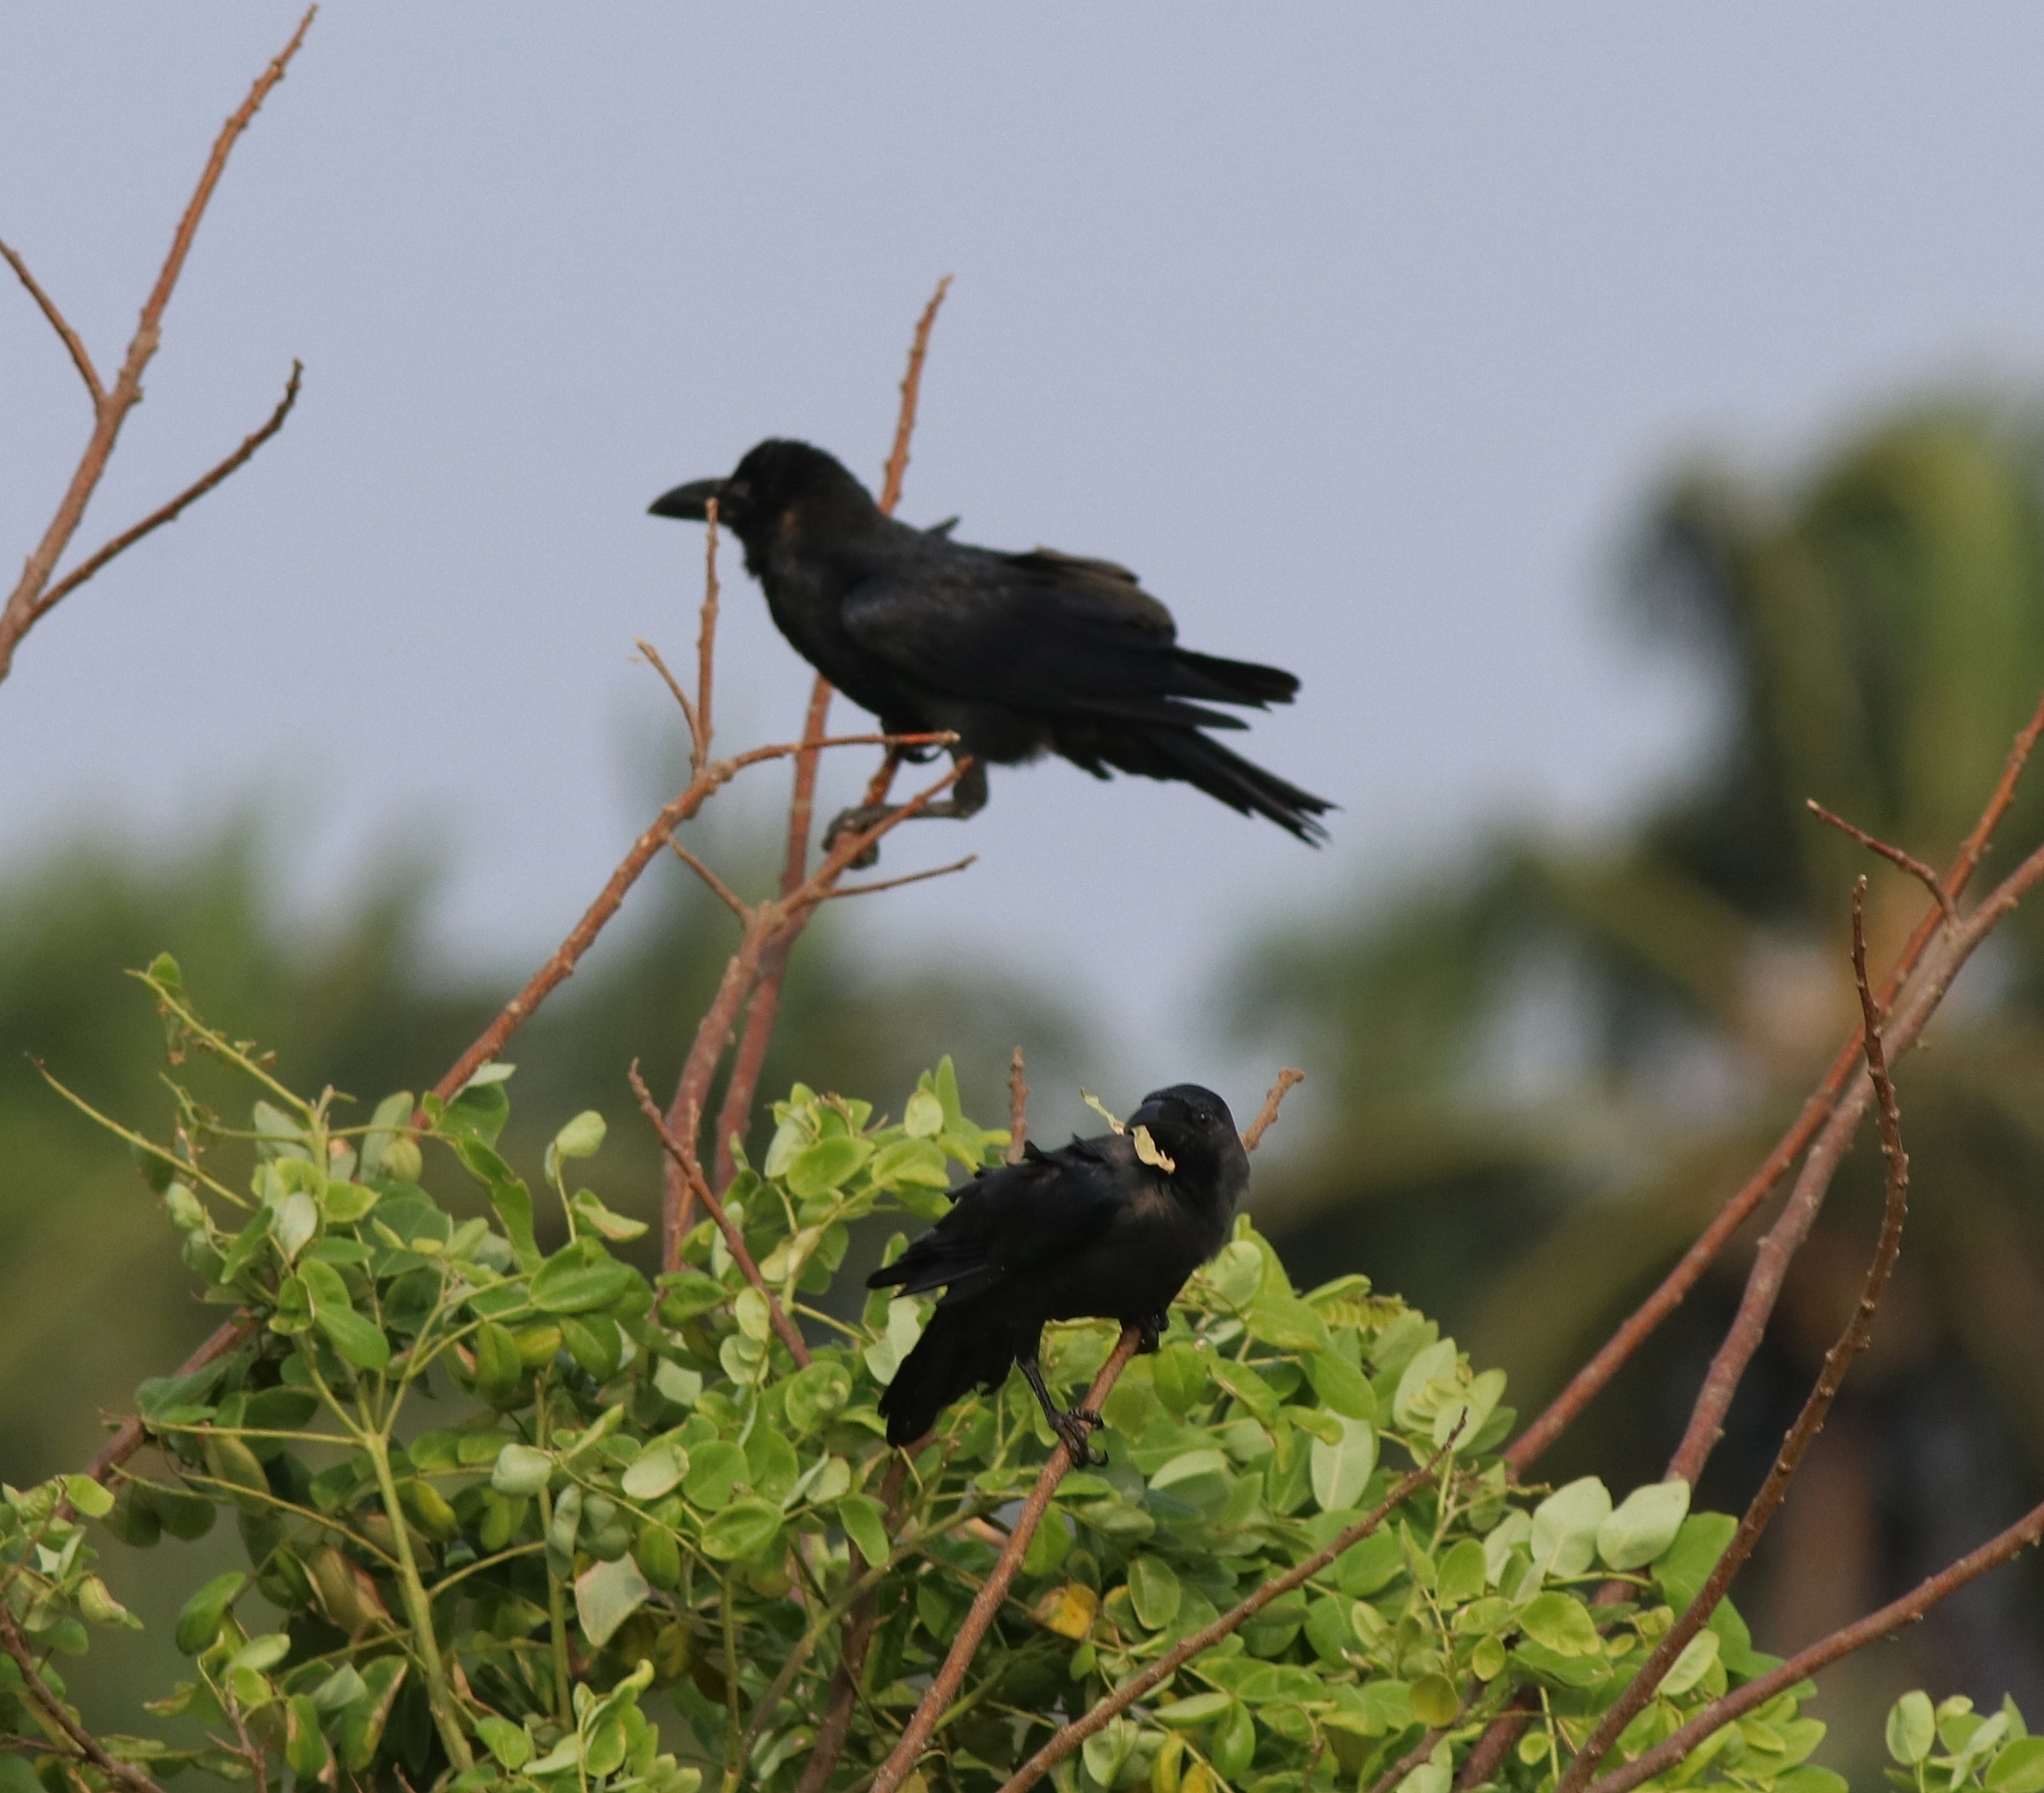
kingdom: Animalia
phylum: Chordata
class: Aves
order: Passeriformes
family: Corvidae
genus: Corvus
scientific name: Corvus macrorhynchos
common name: Large-billed crow
